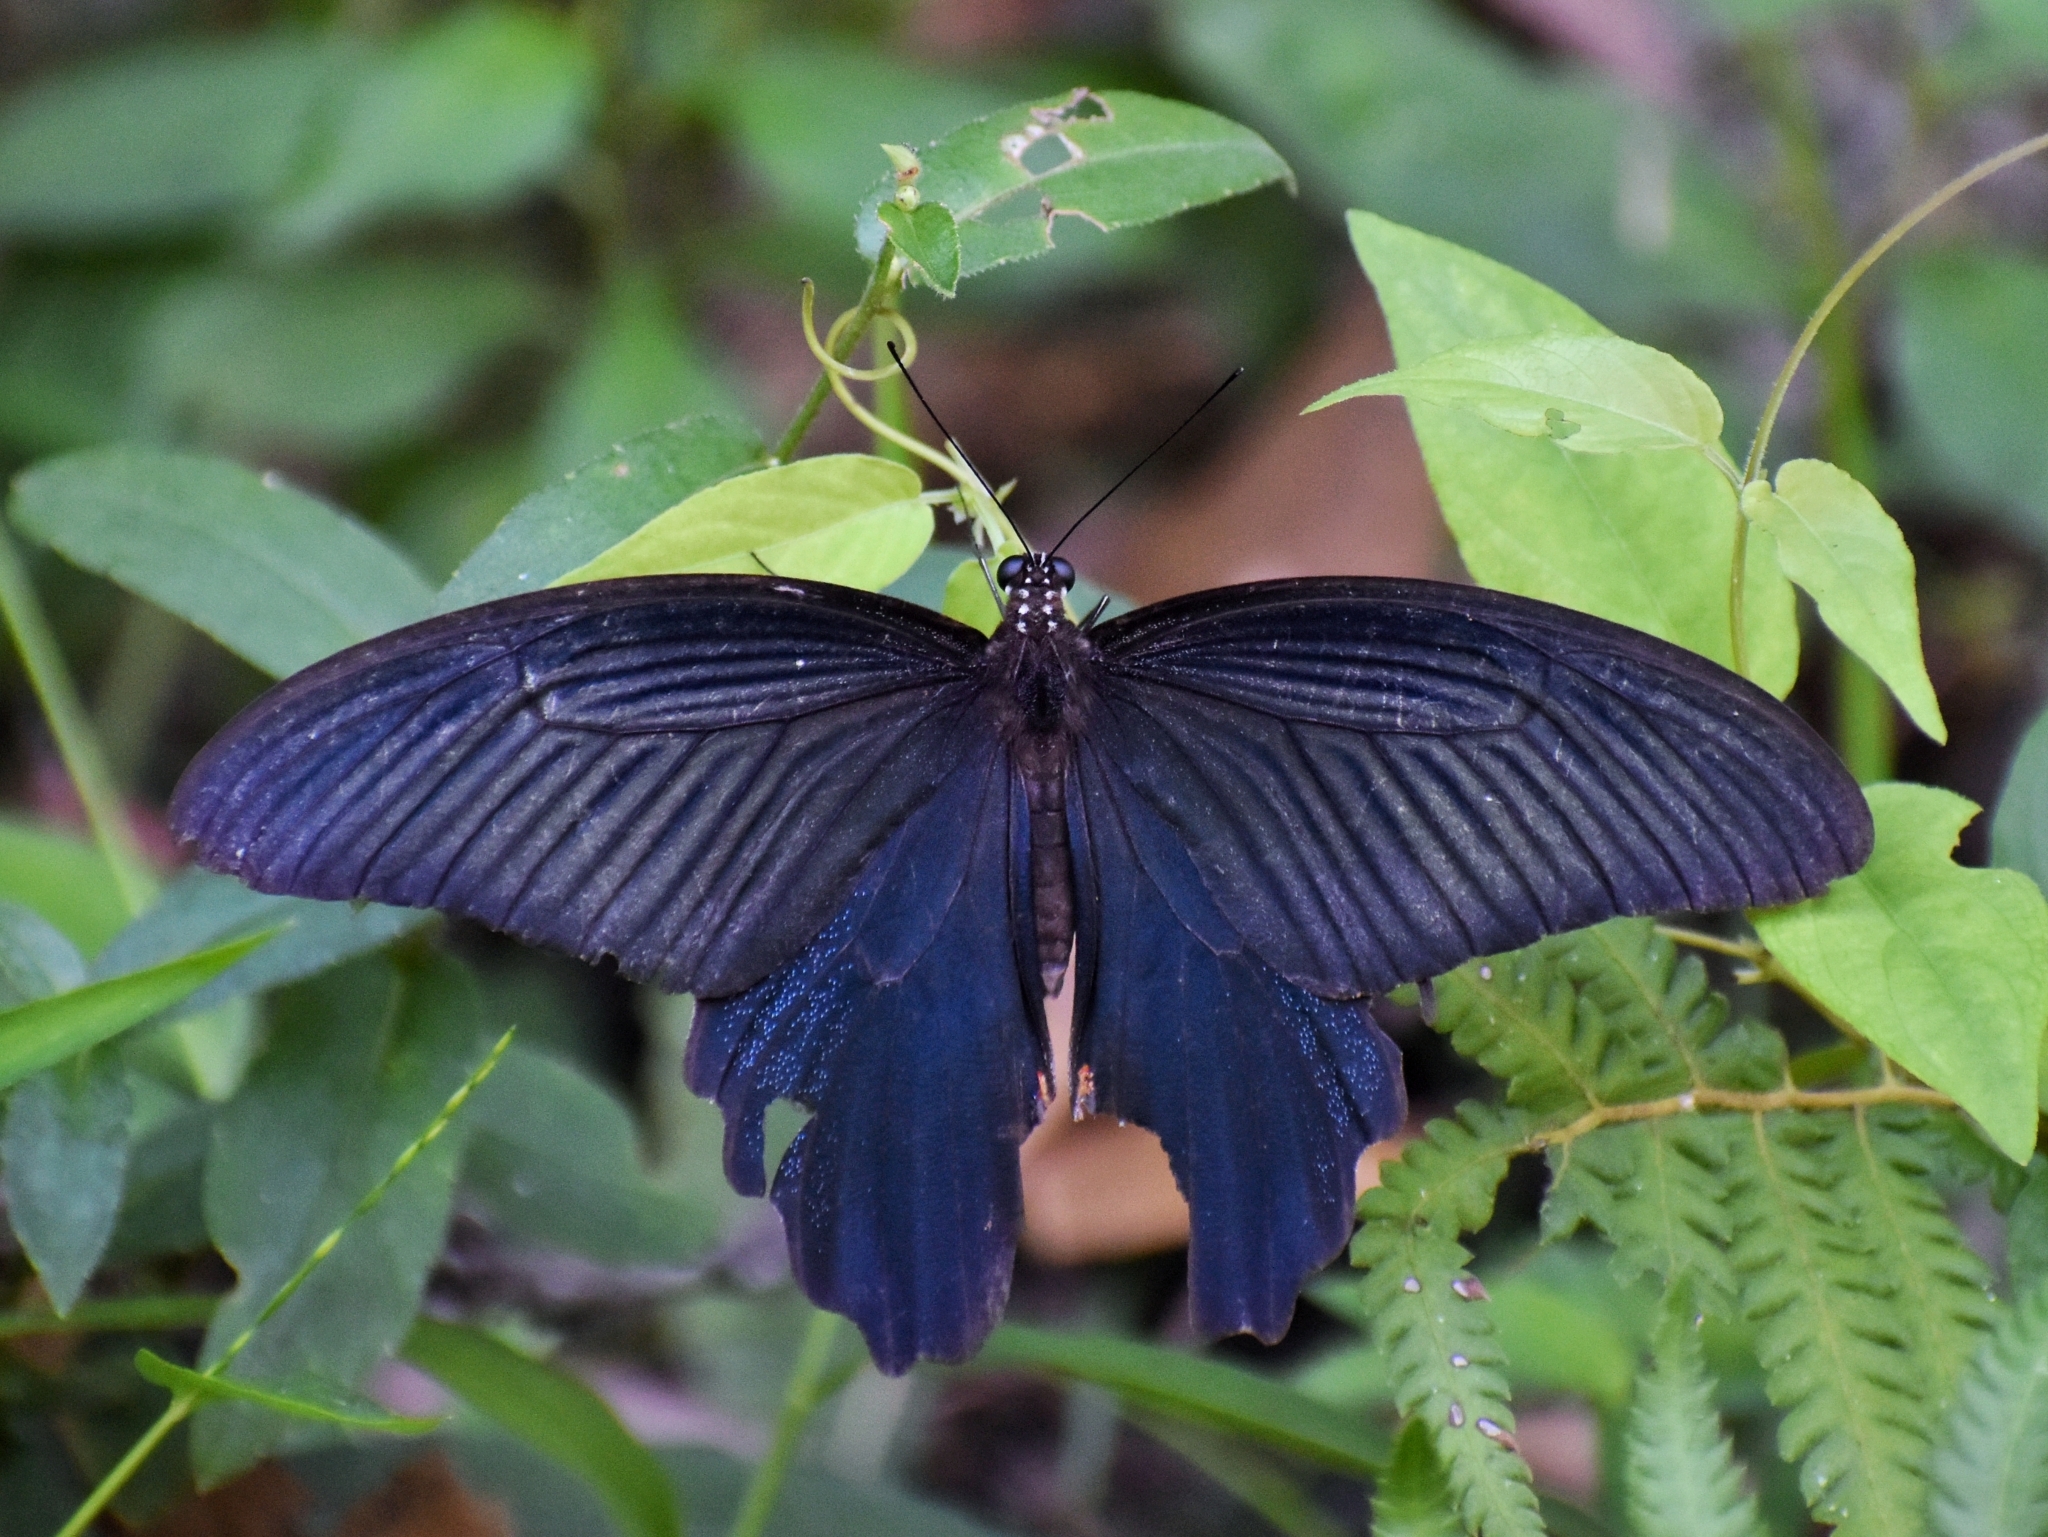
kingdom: Animalia
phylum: Arthropoda
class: Insecta
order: Lepidoptera
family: Papilionidae
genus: Papilio
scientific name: Papilio protenor
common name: Spangle
